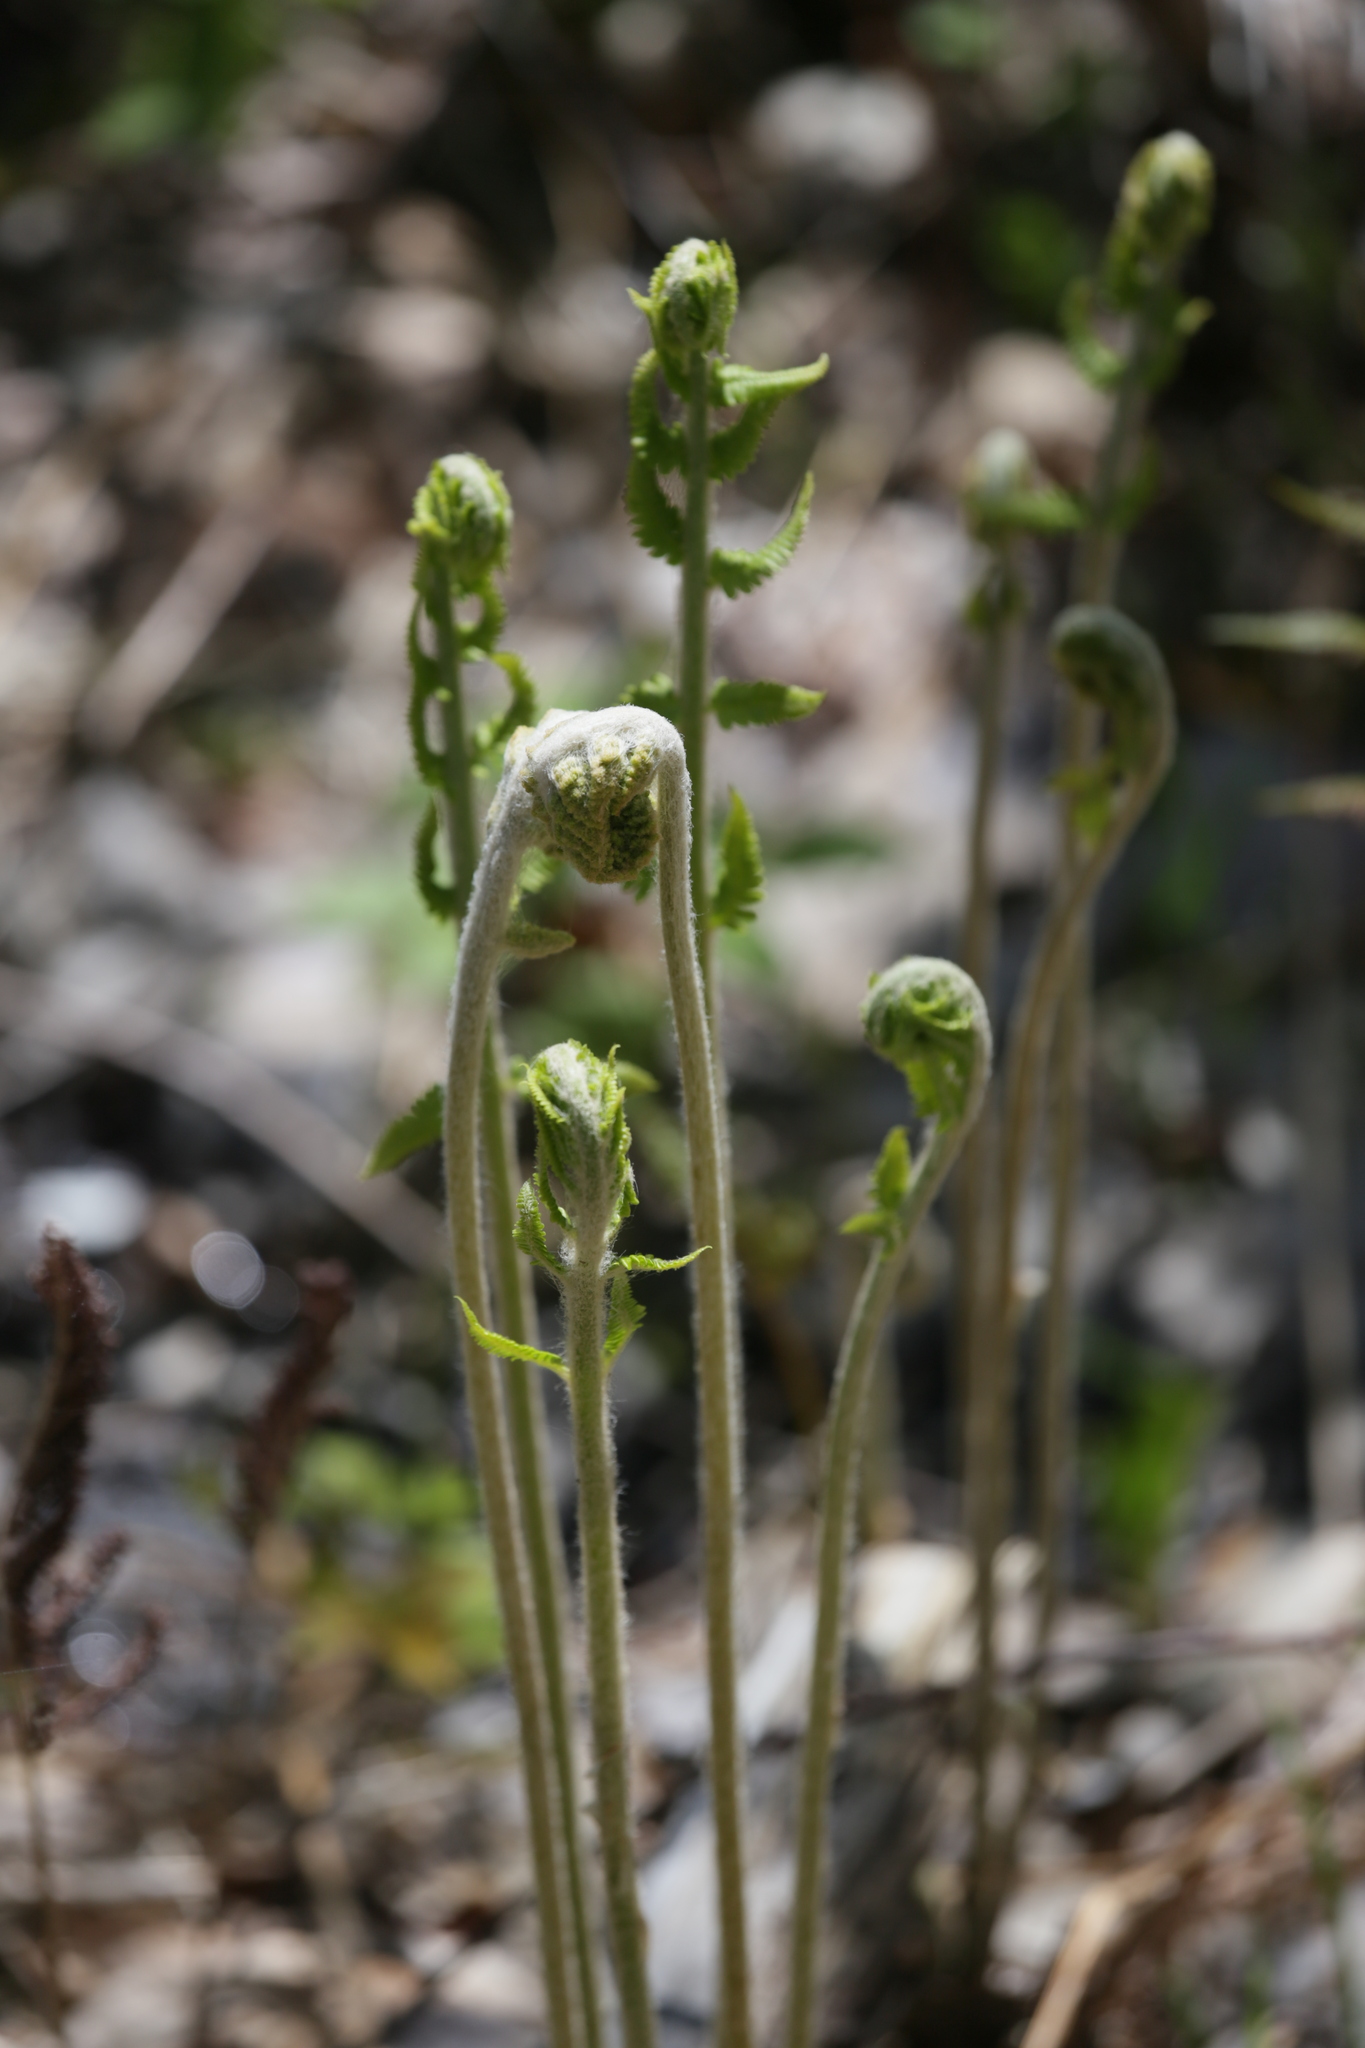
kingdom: Plantae
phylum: Tracheophyta
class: Liliopsida
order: Liliales
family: Liliaceae
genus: Clintonia
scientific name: Clintonia borealis
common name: Yellow clintonia
